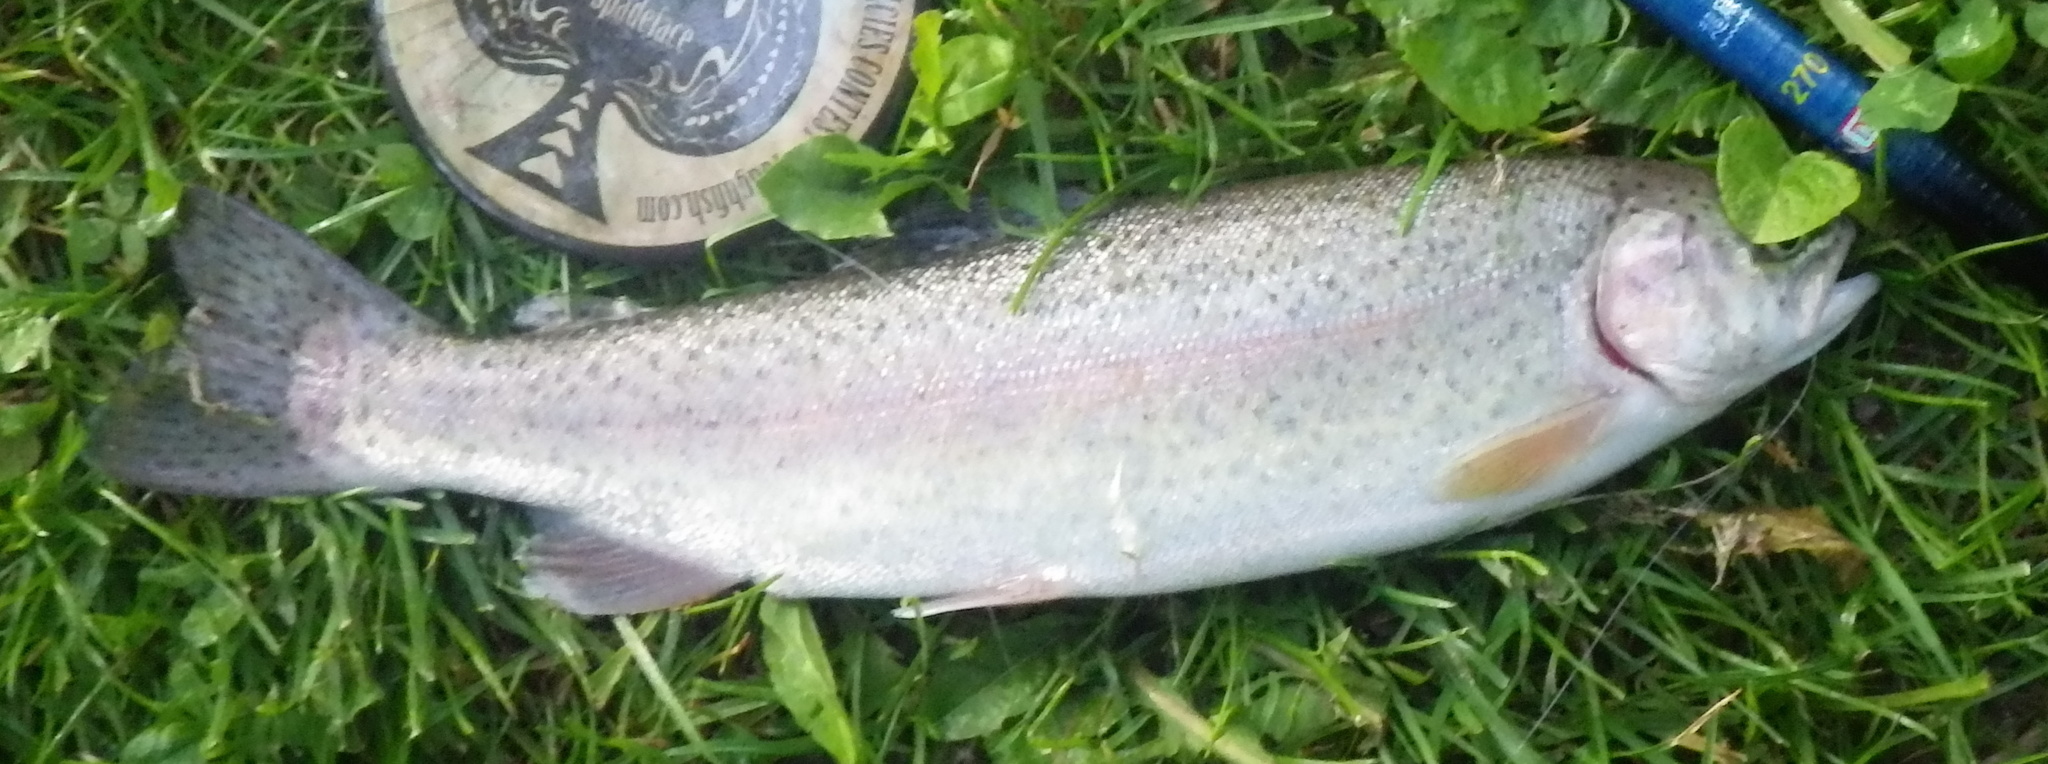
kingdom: Animalia
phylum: Chordata
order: Salmoniformes
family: Salmonidae
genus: Oncorhynchus
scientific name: Oncorhynchus mykiss
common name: Rainbow trout
